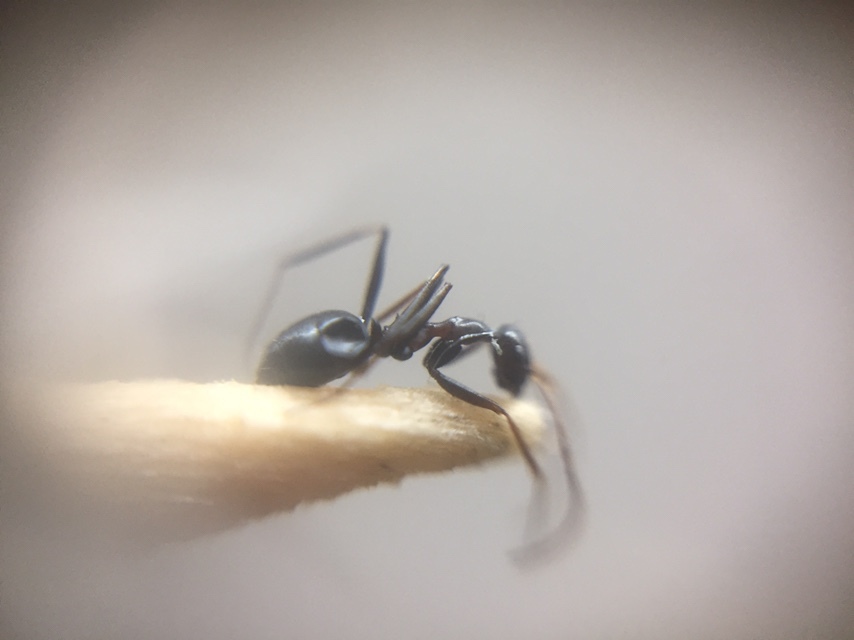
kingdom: Animalia
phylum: Arthropoda
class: Insecta
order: Hymenoptera
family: Formicidae
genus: Lepisiota
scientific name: Lepisiota integra
